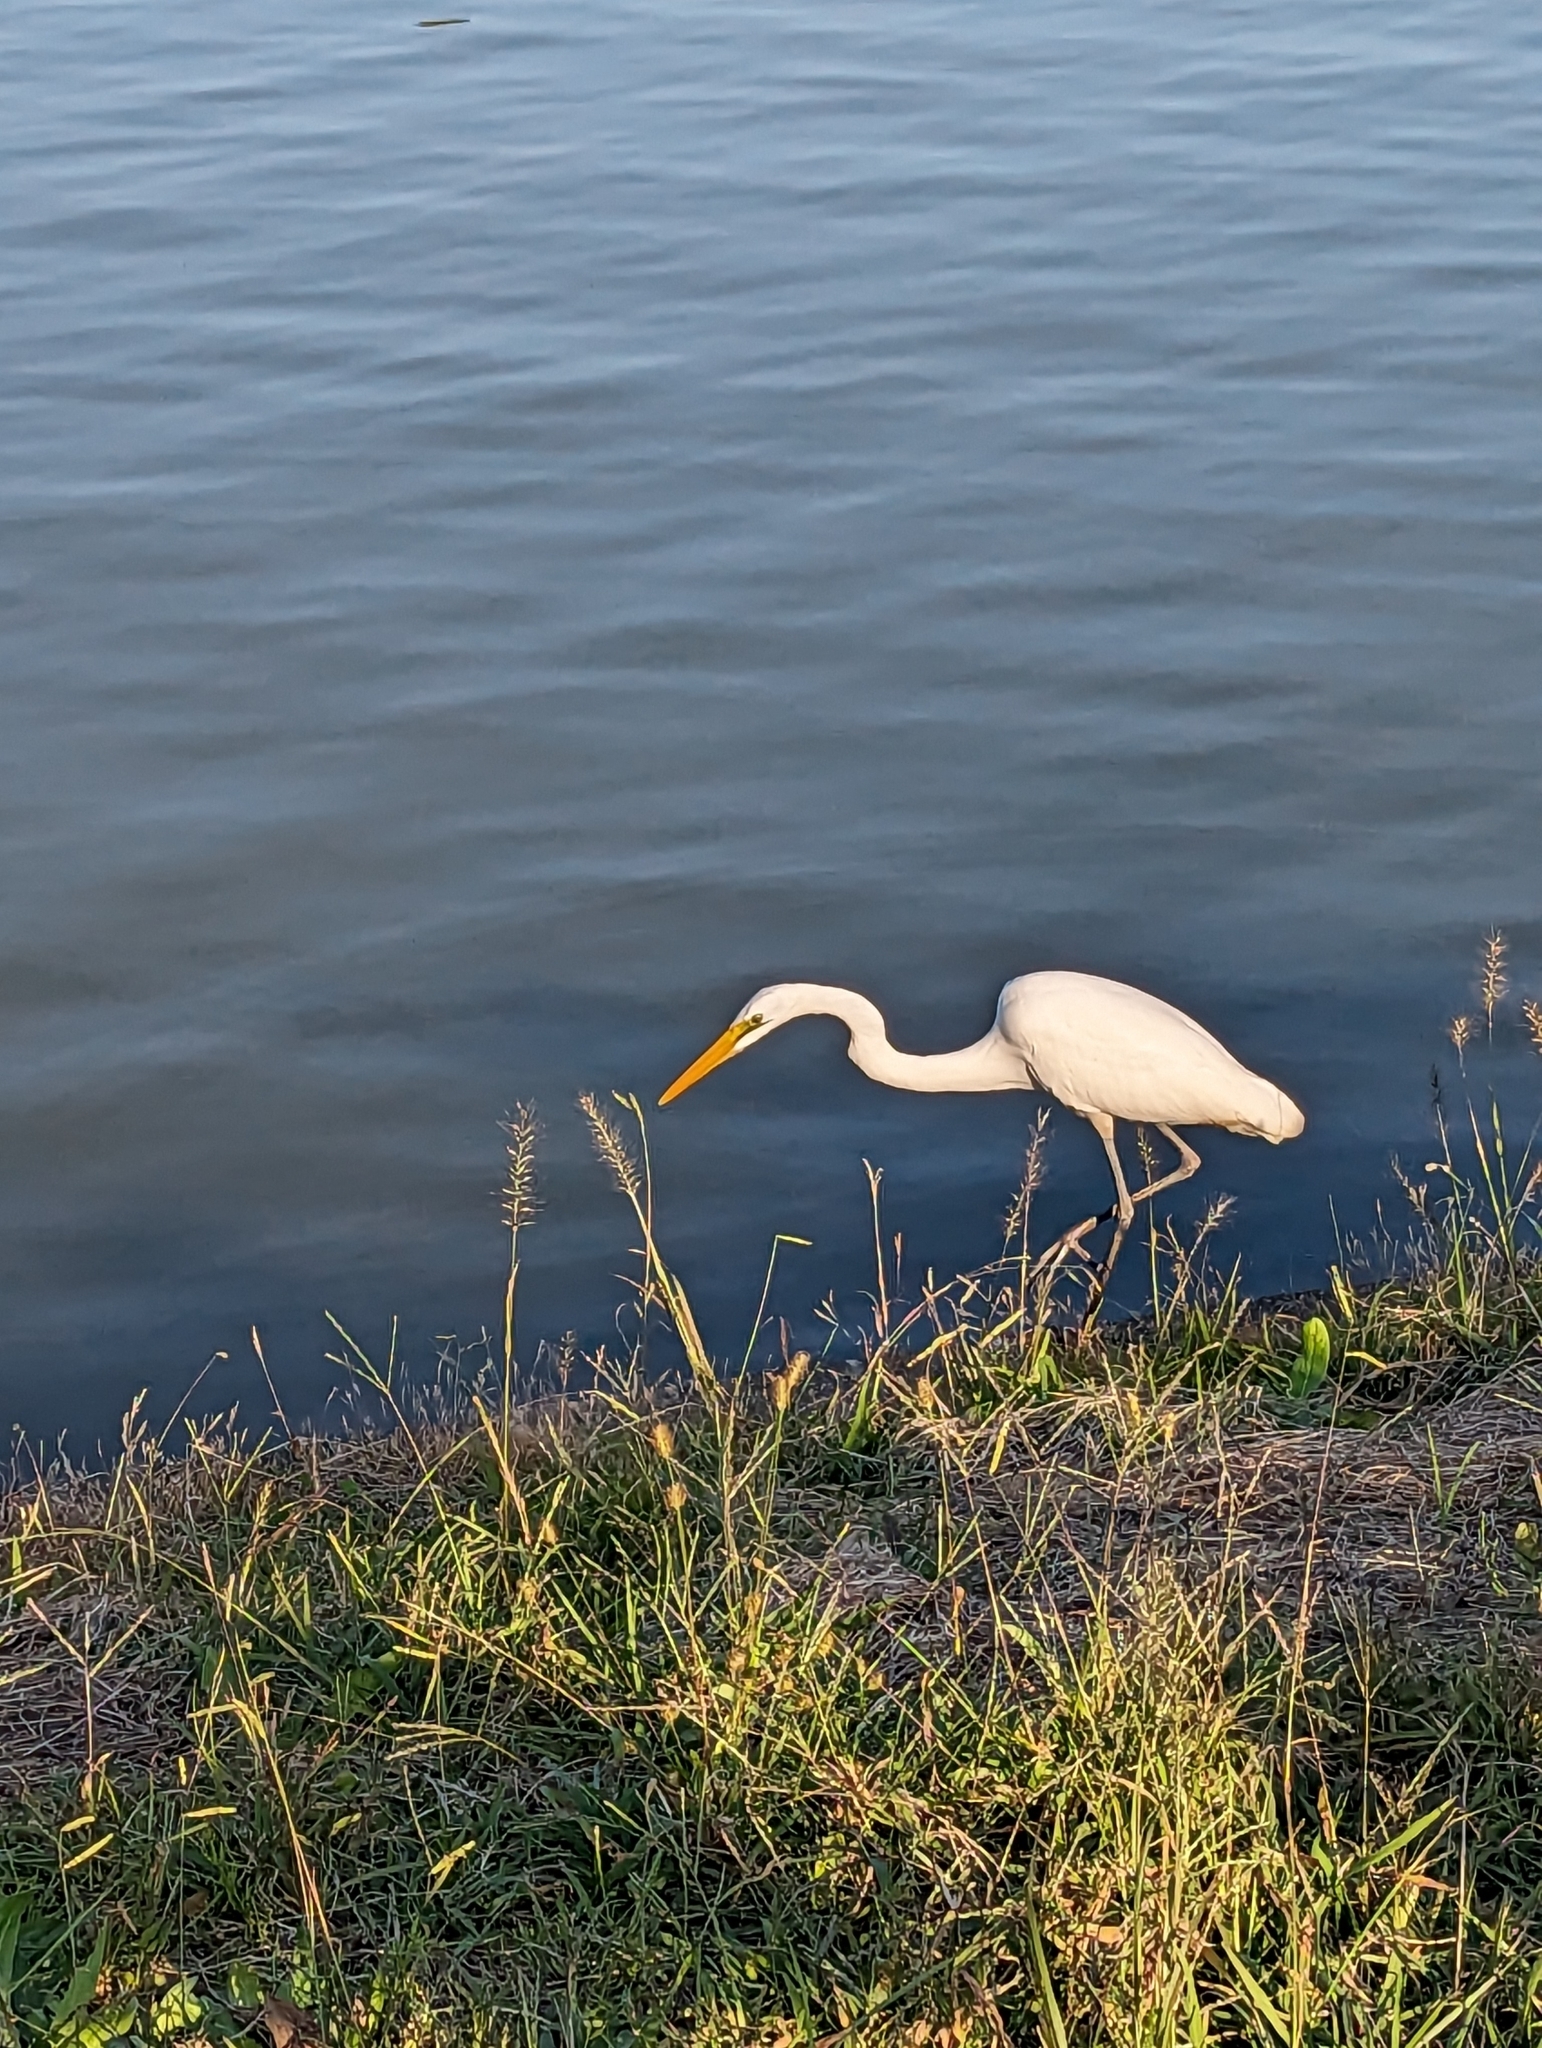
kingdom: Animalia
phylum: Chordata
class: Aves
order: Pelecaniformes
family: Ardeidae
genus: Ardea
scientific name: Ardea alba
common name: Great egret
